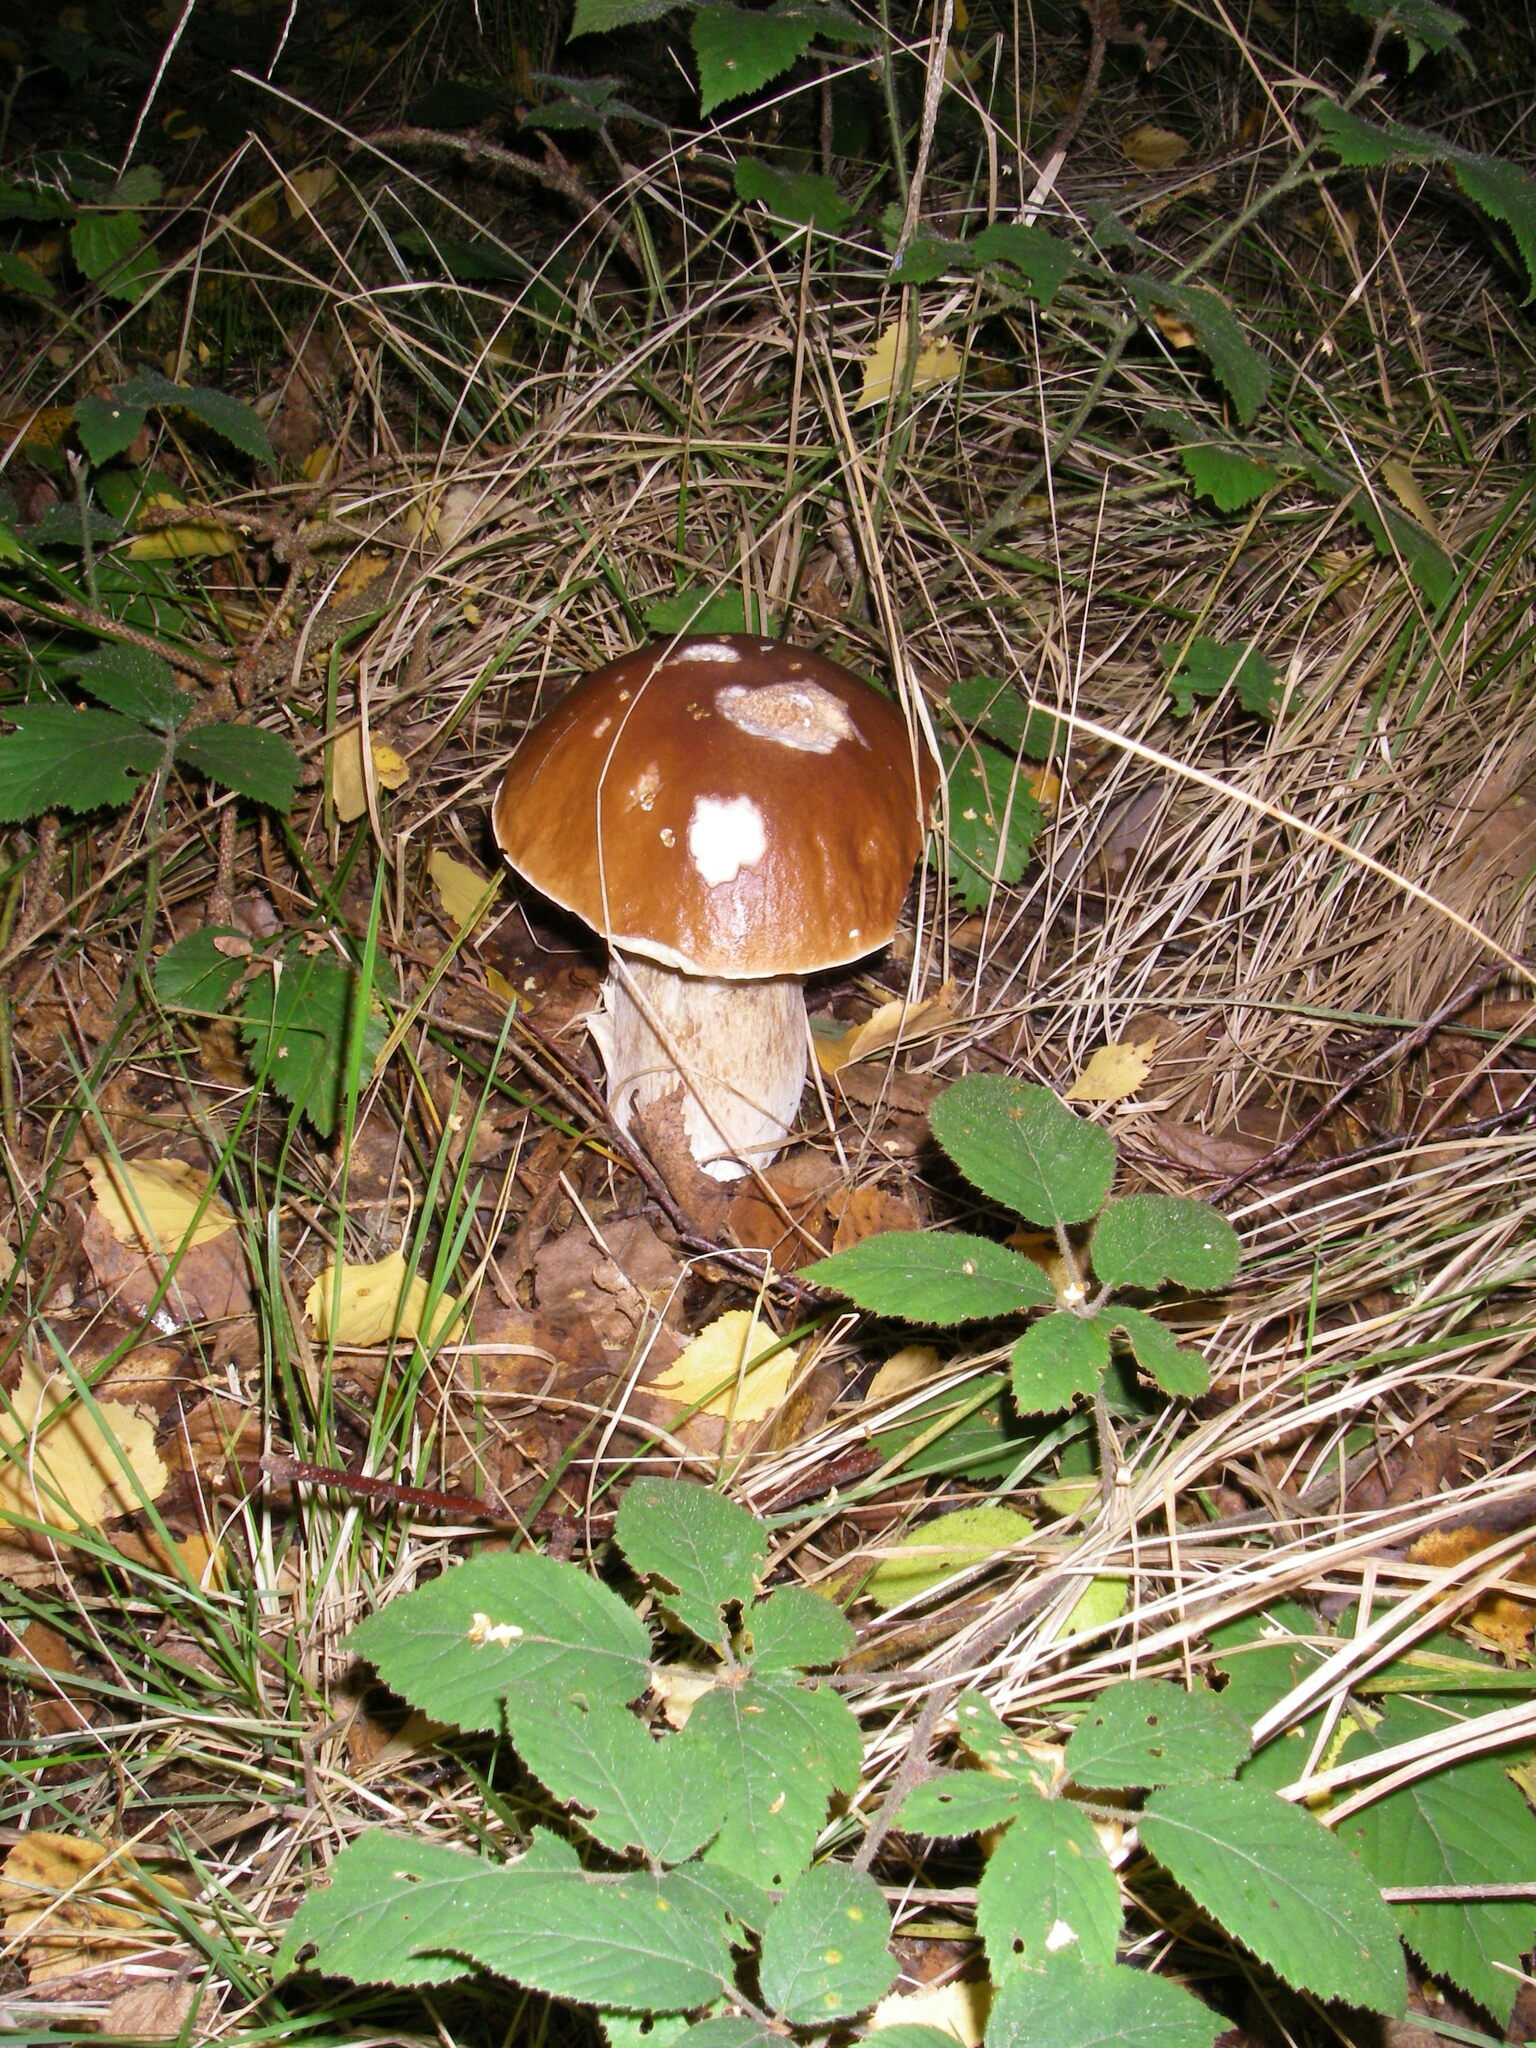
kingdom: Fungi
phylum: Basidiomycota
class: Agaricomycetes
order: Boletales
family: Boletaceae
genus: Boletus
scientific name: Boletus edulis
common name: Cep
